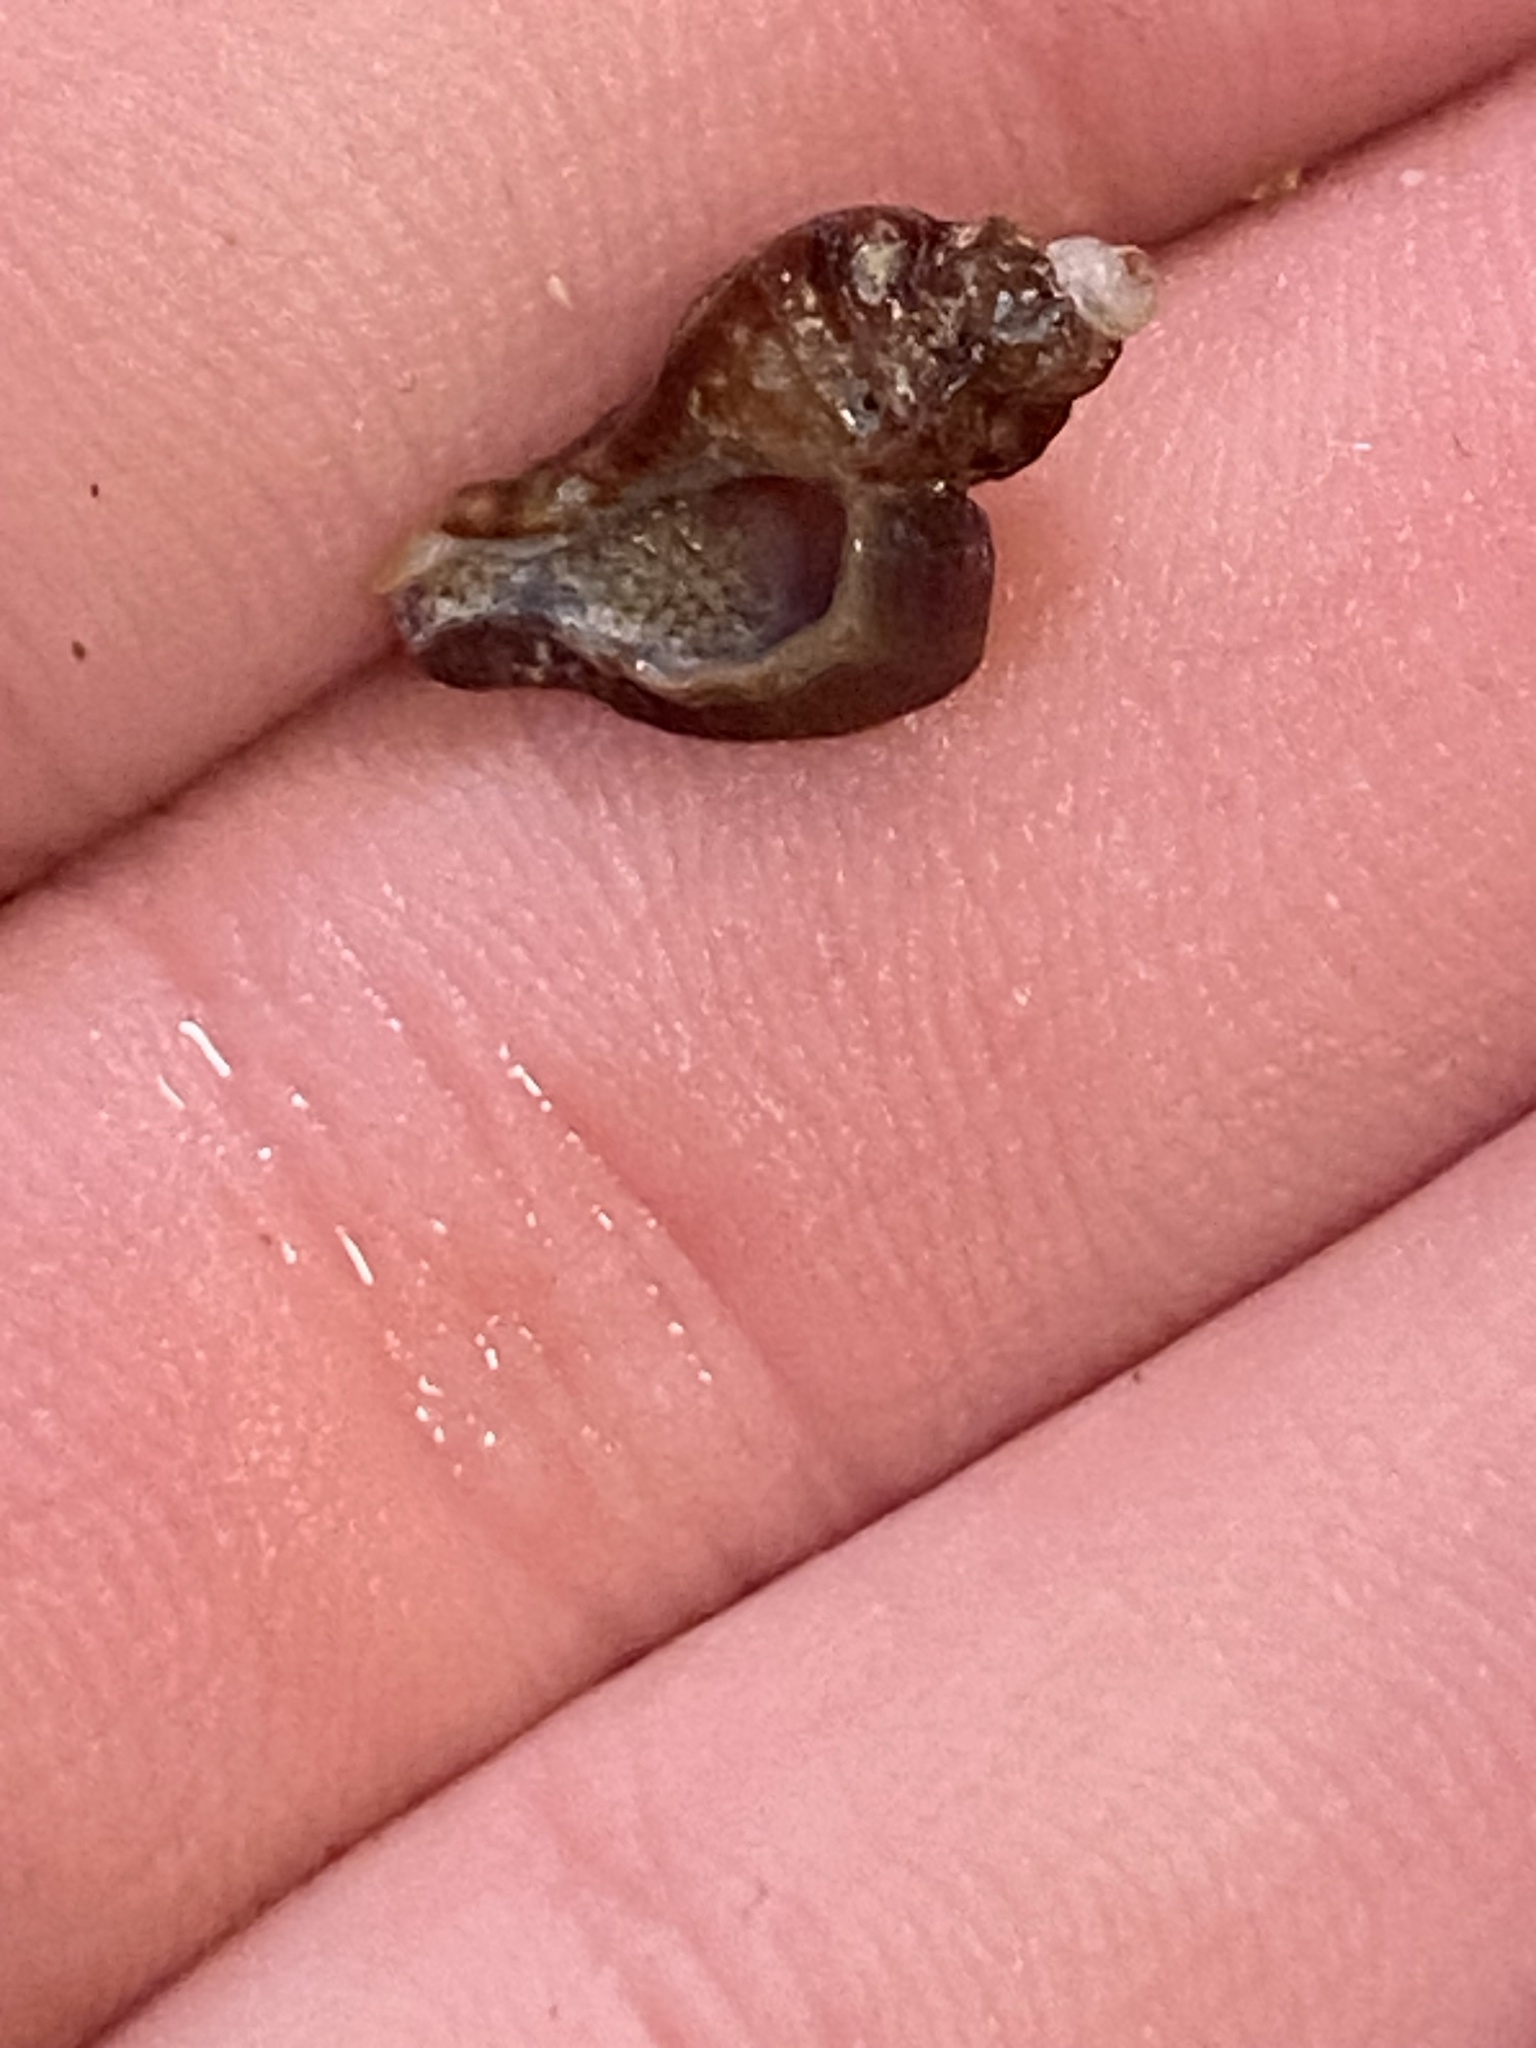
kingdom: Animalia
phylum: Mollusca
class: Gastropoda
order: Neogastropoda
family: Muricidae
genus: Ceratostoma
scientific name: Ceratostoma foliatum
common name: Foliate thorn purpura
